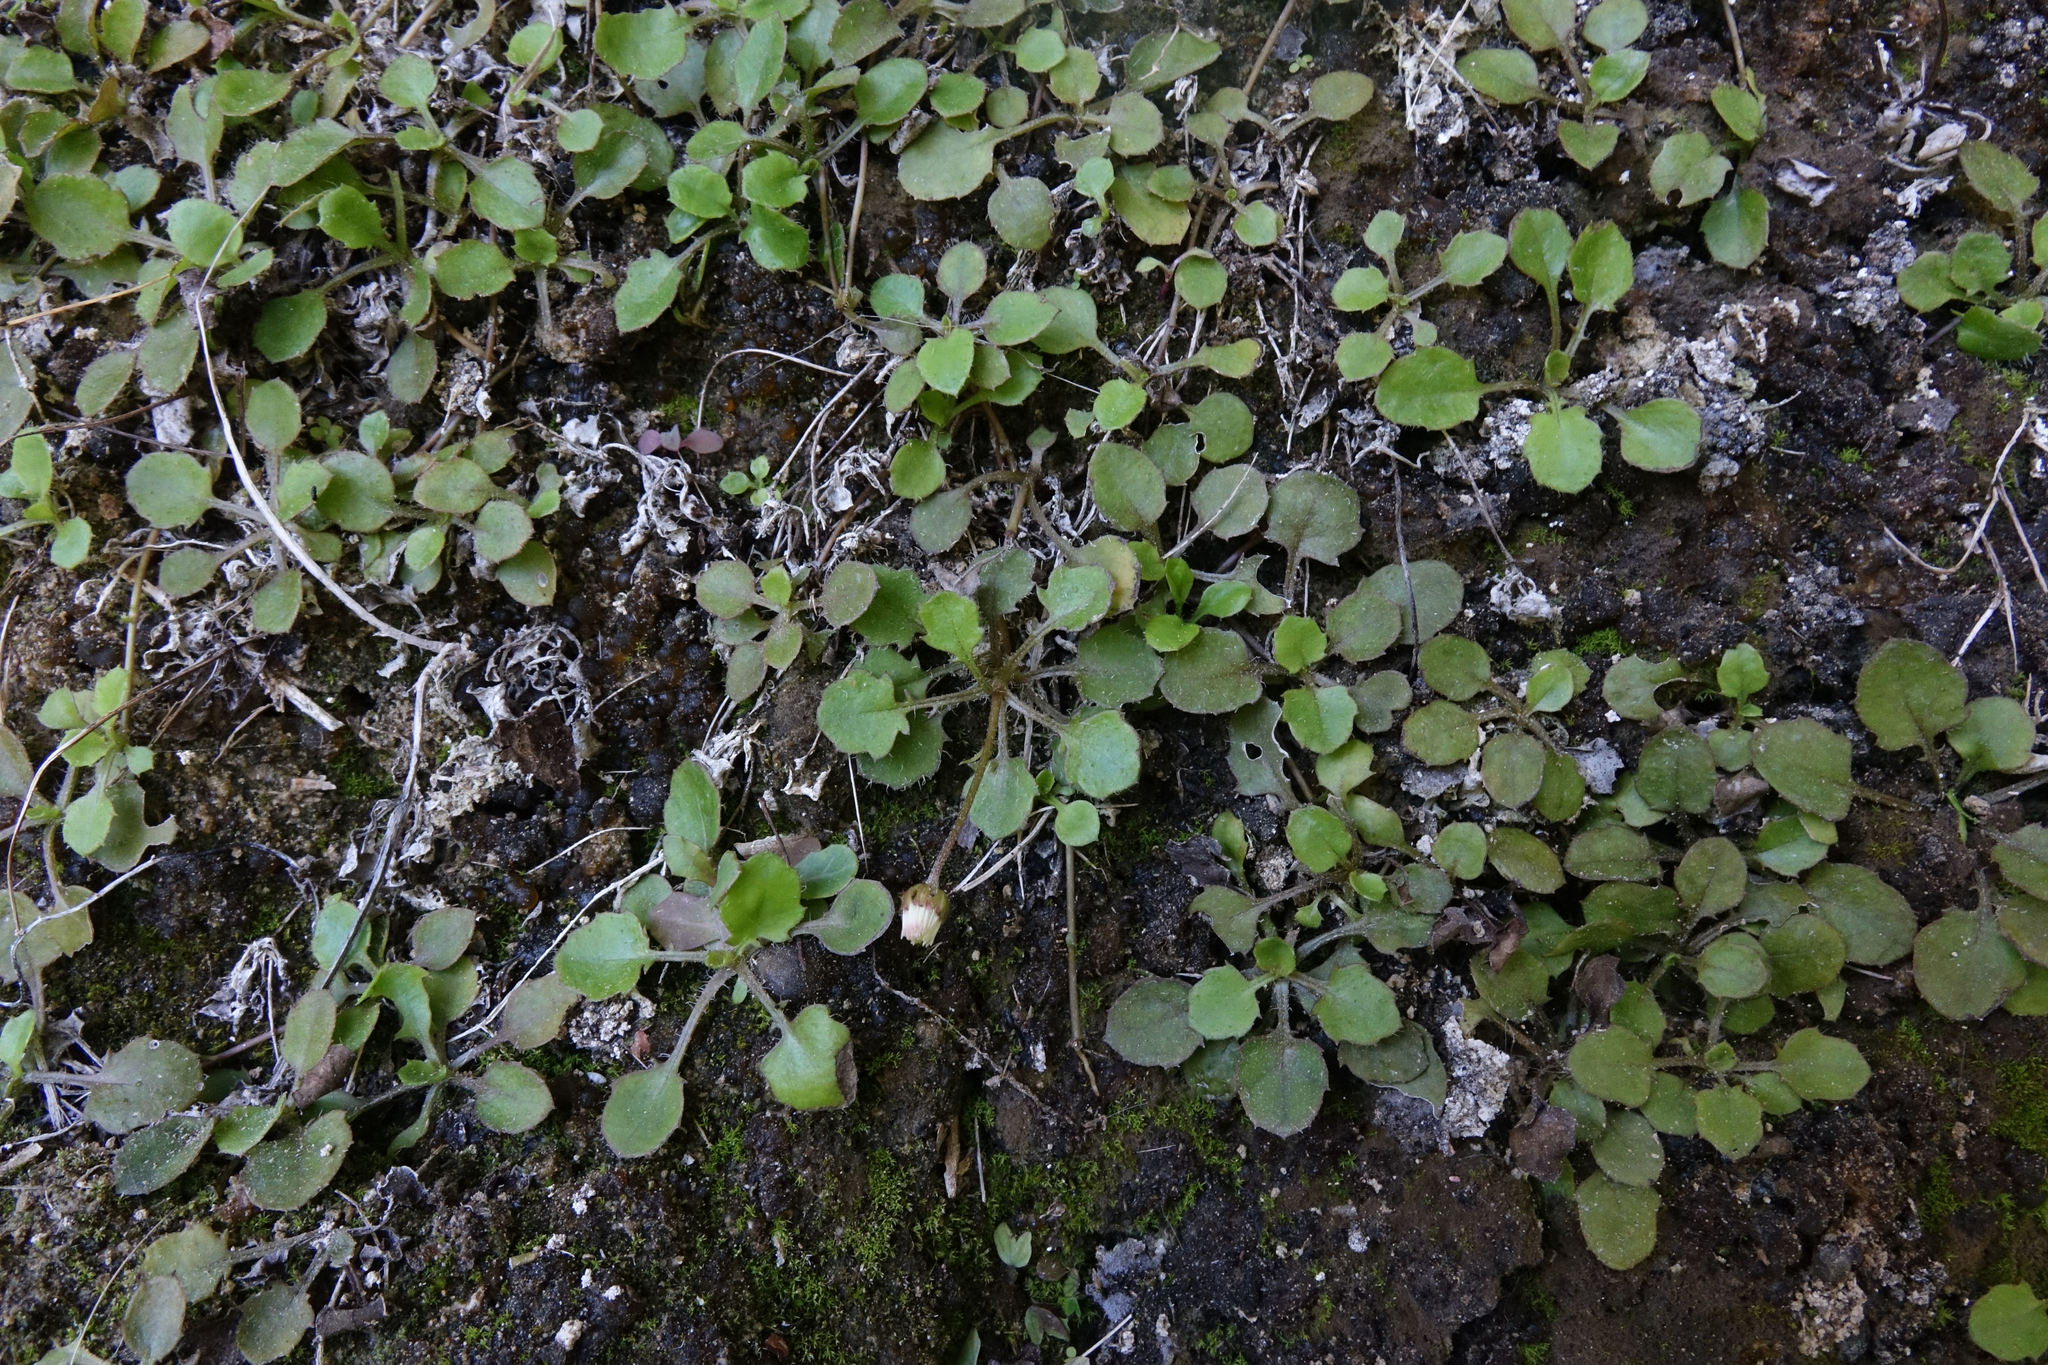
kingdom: Plantae
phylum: Tracheophyta
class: Magnoliopsida
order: Asterales
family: Asteraceae
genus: Lagenophora
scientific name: Lagenophora pumila
